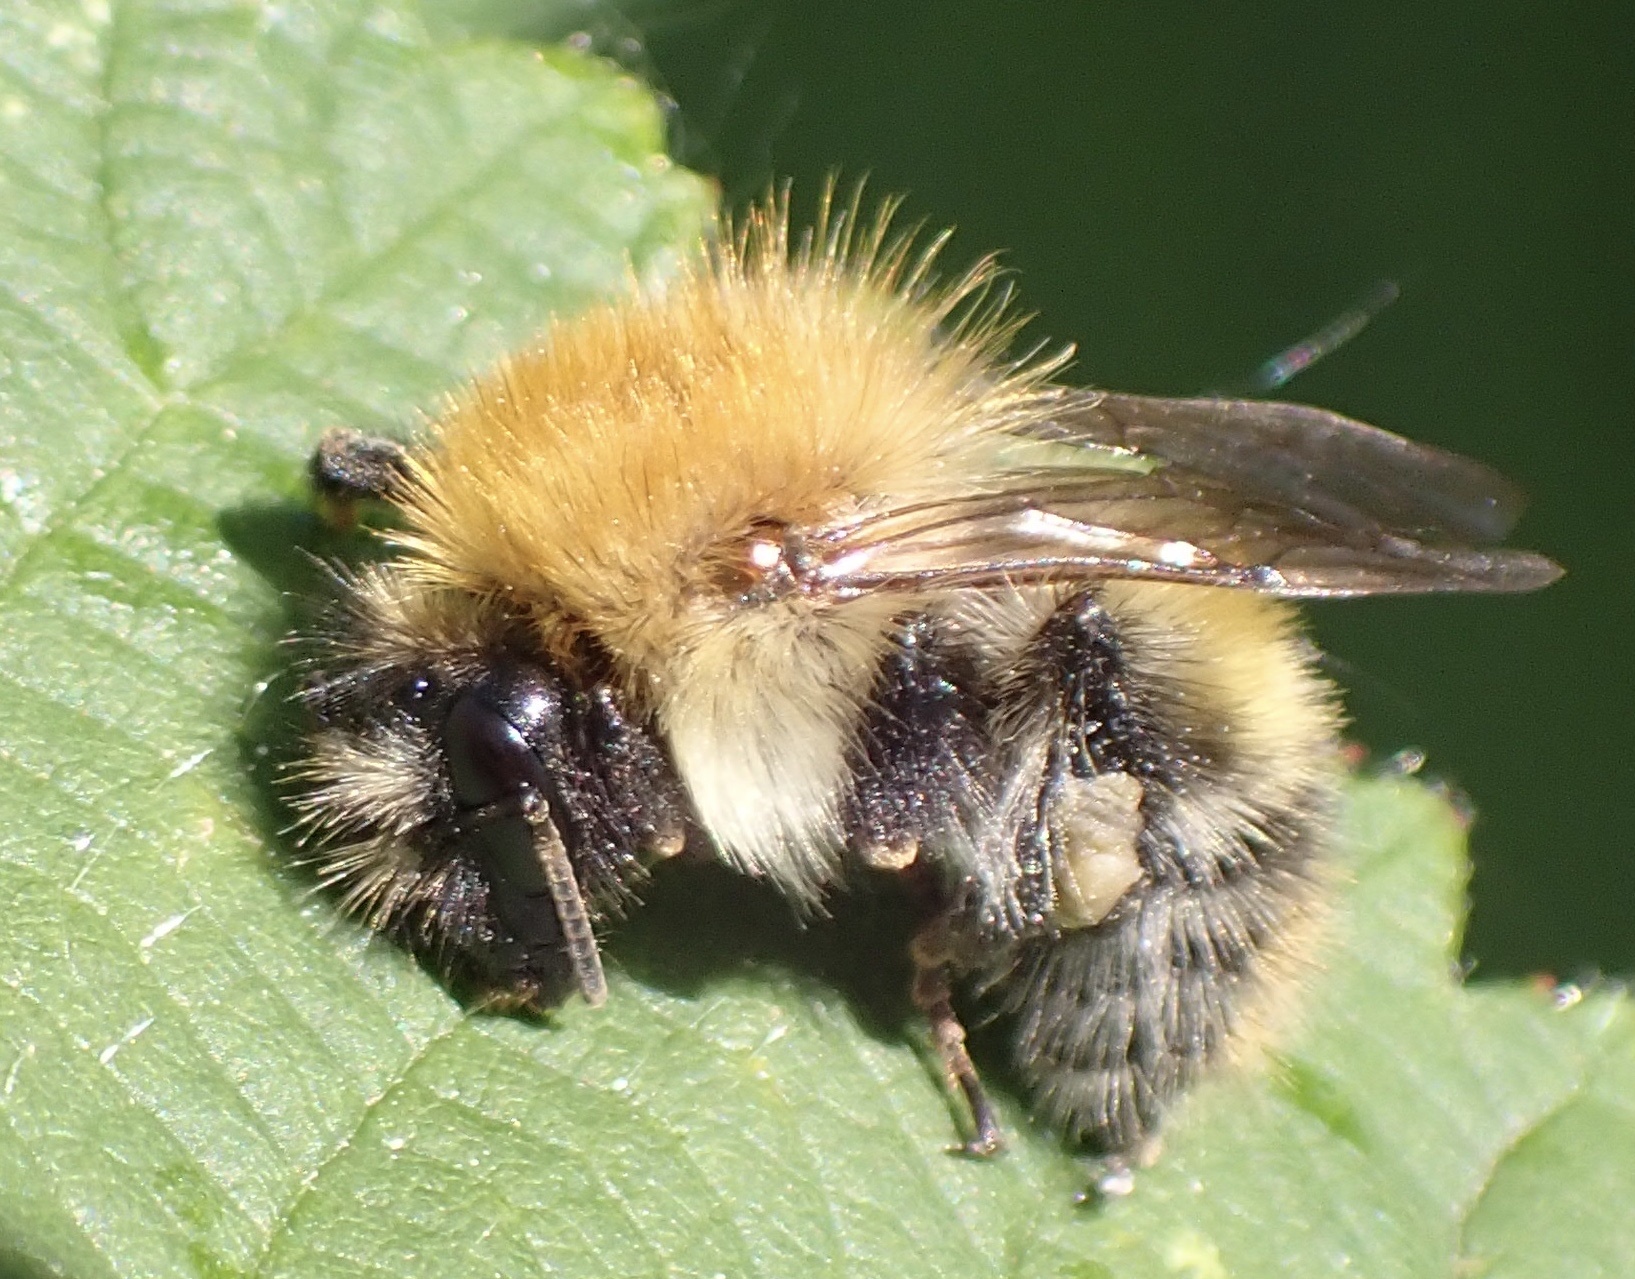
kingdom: Animalia
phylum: Arthropoda
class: Insecta
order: Hymenoptera
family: Apidae
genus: Bombus
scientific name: Bombus pascuorum
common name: Common carder bee
